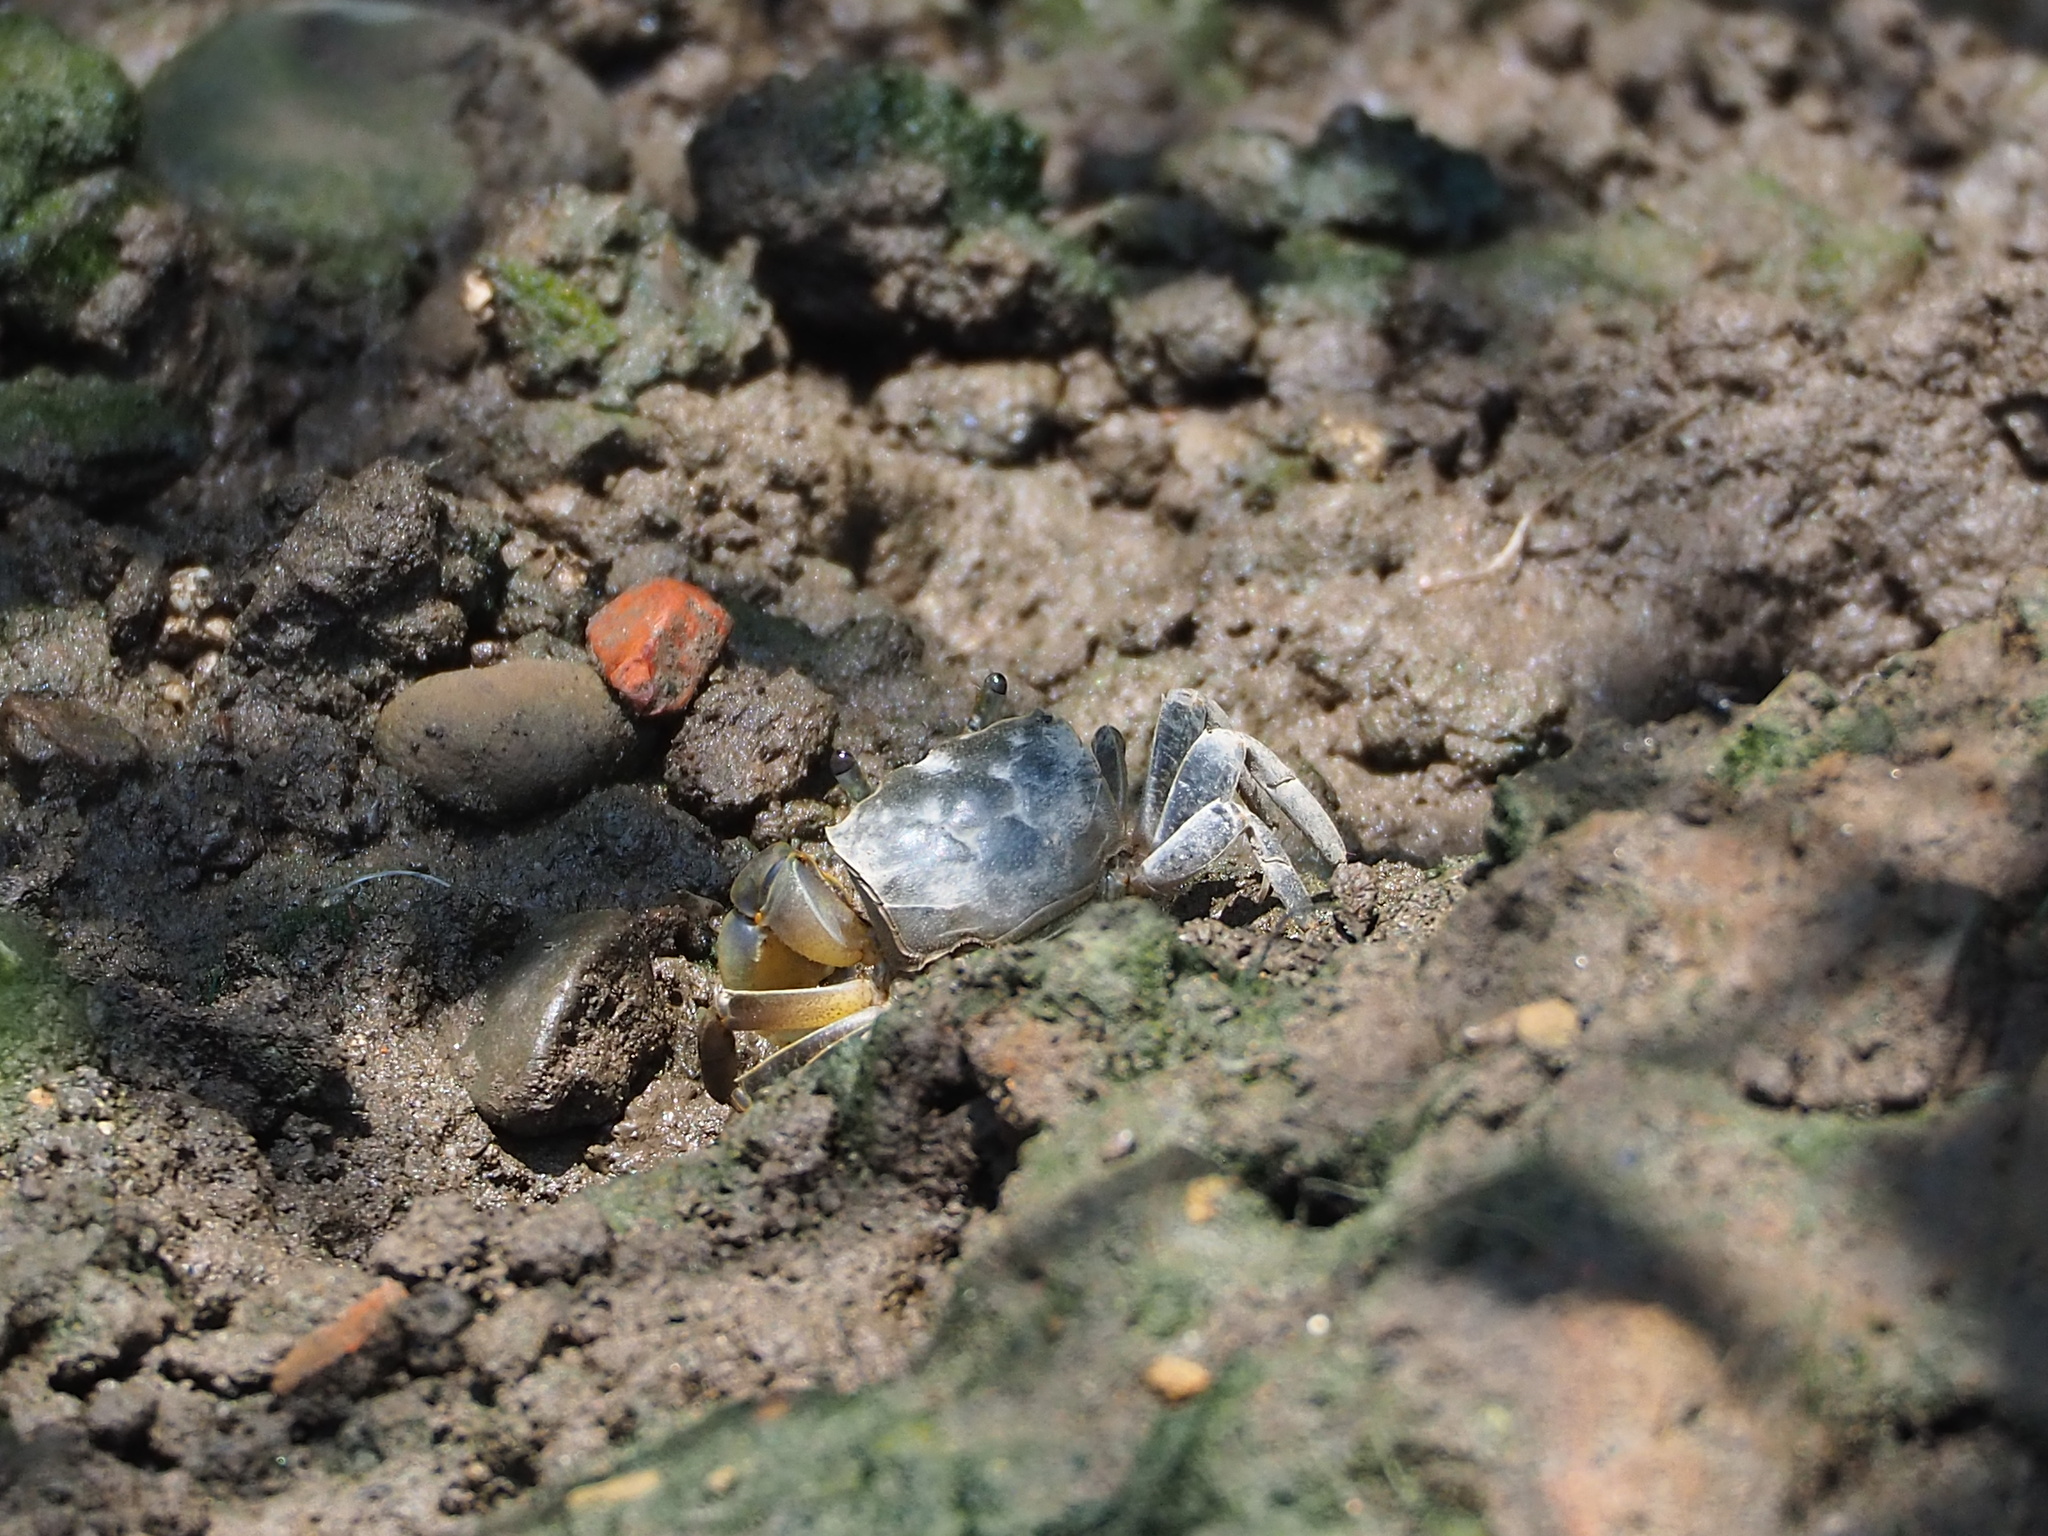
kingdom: Animalia
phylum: Arthropoda
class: Malacostraca
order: Decapoda
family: Varunidae
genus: Helice
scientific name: Helice formosensis
